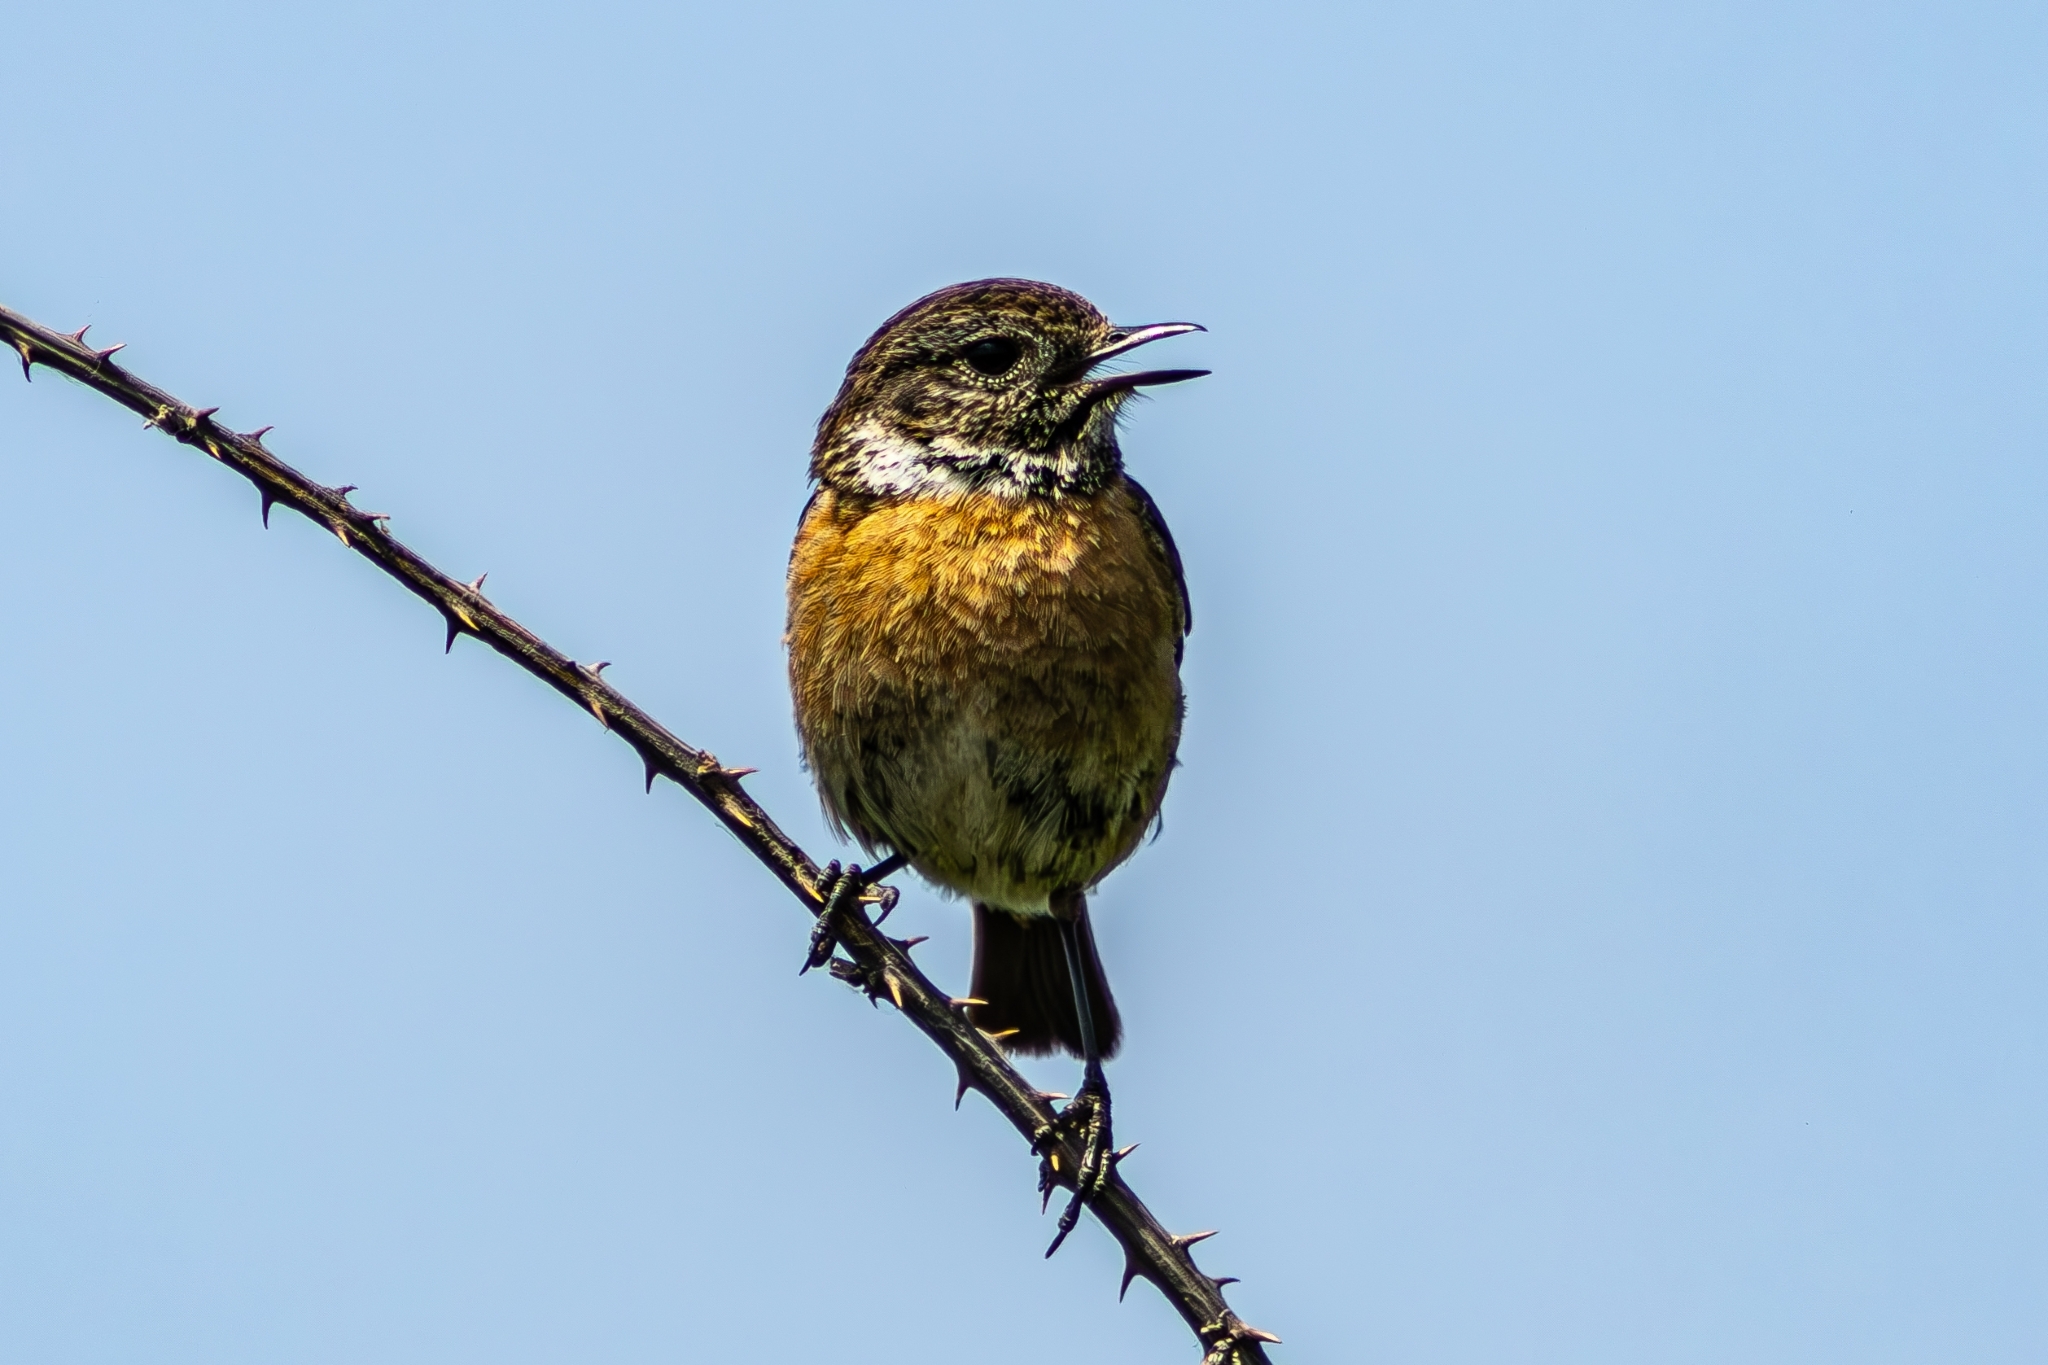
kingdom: Animalia
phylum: Chordata
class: Aves
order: Passeriformes
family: Muscicapidae
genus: Saxicola
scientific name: Saxicola rubicola
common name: European stonechat
